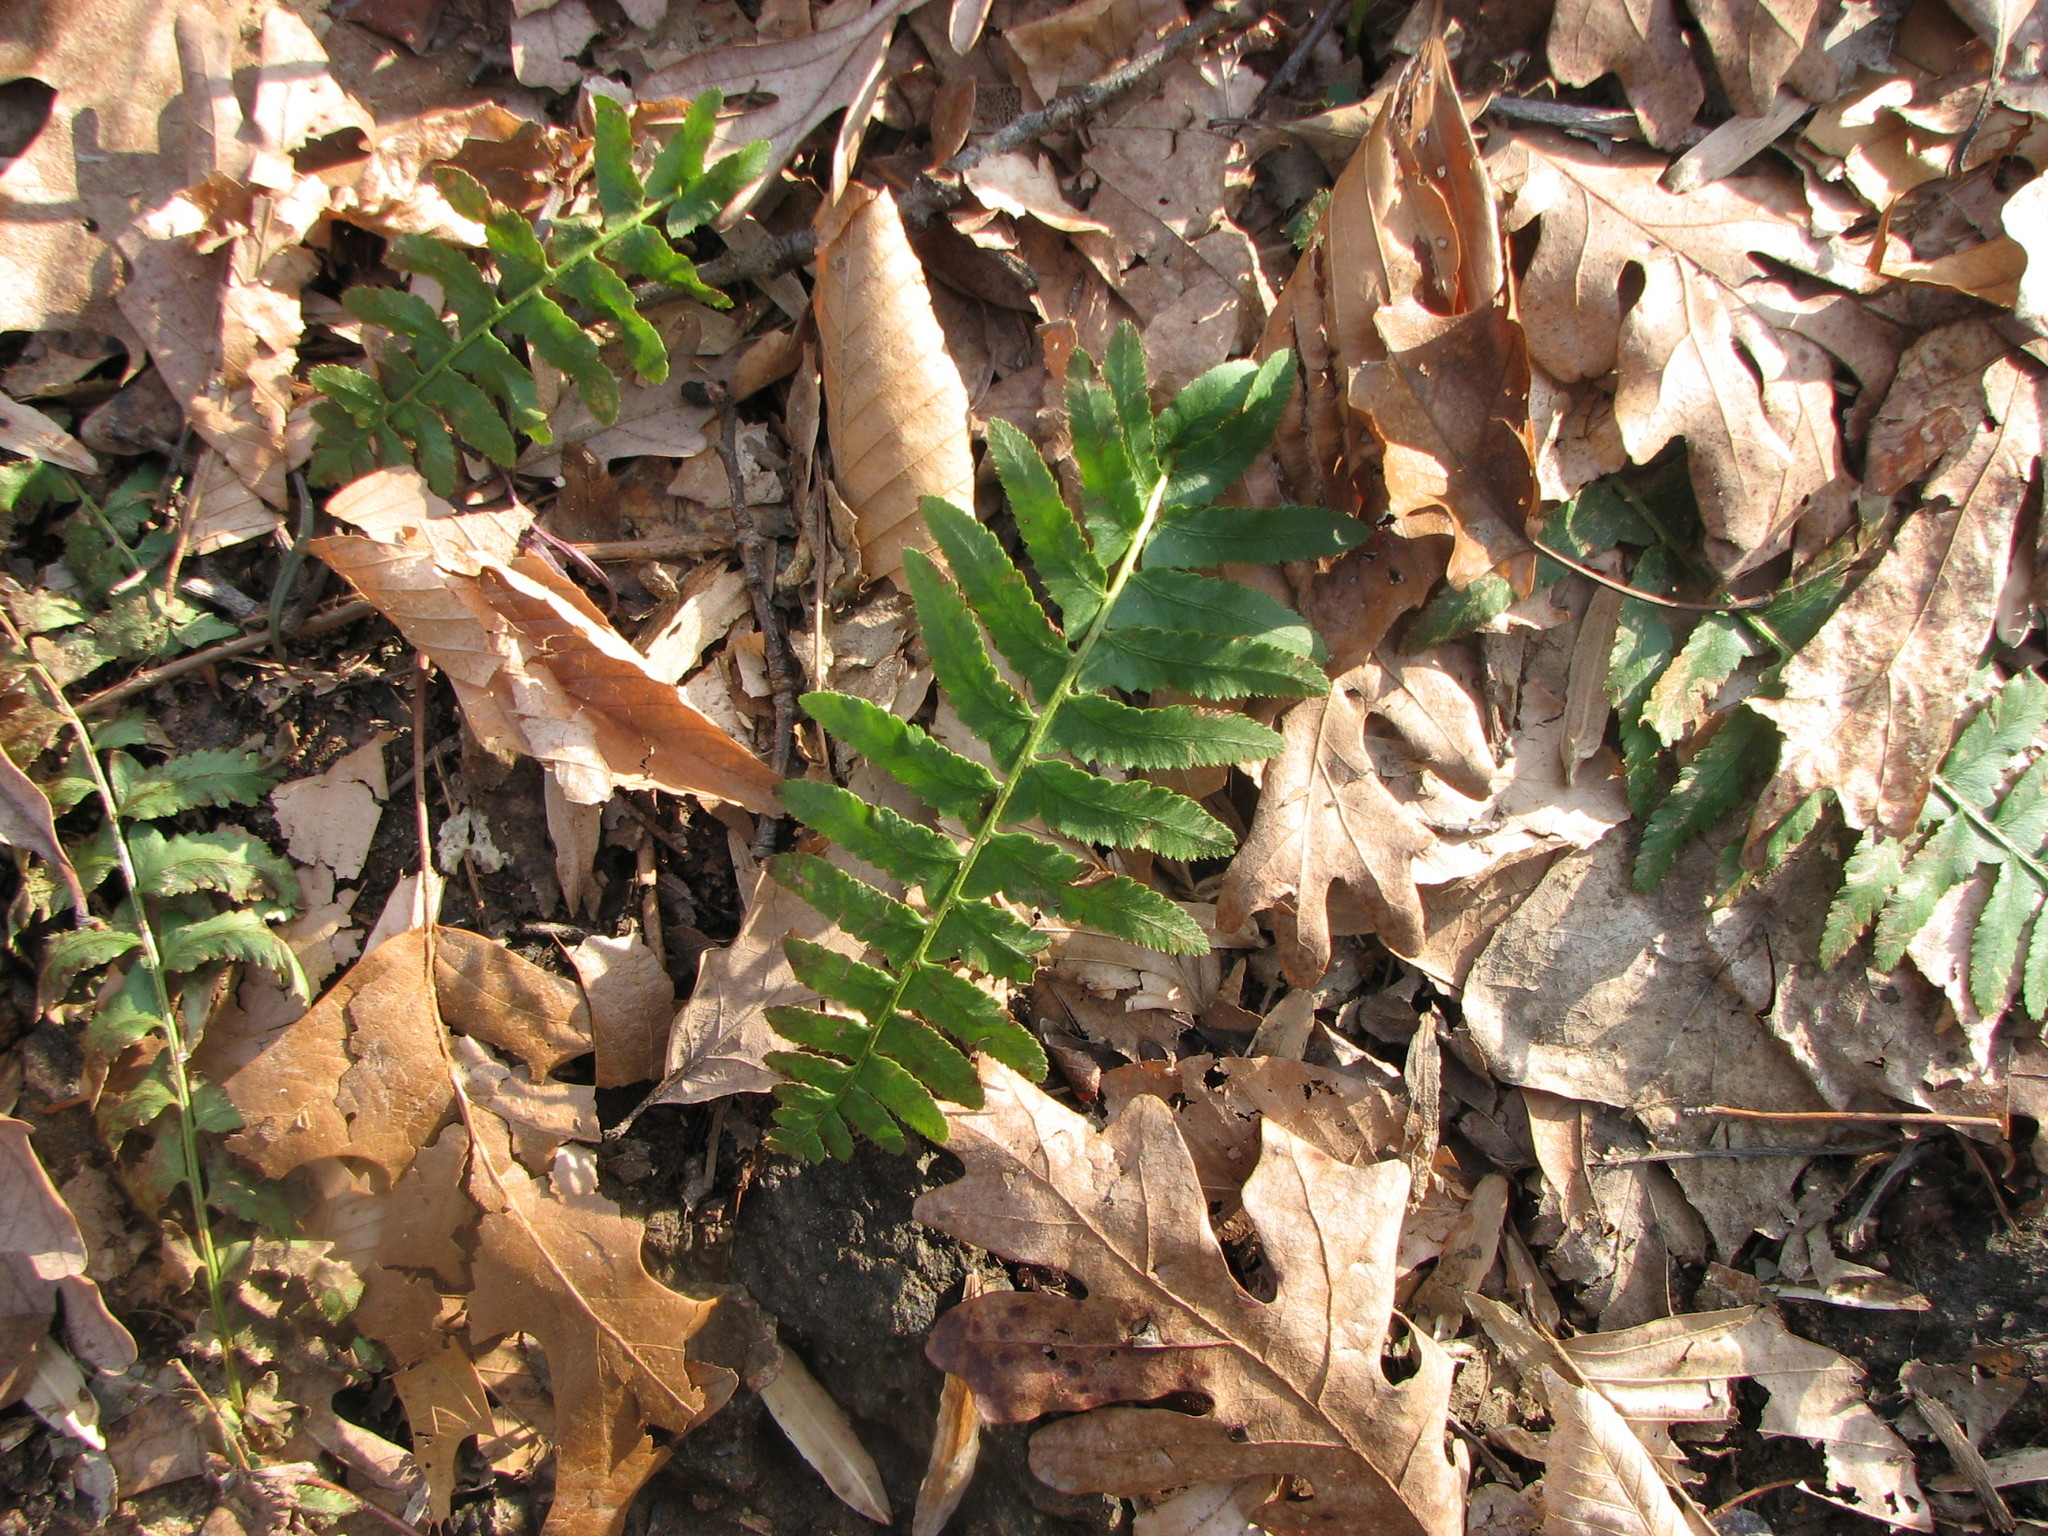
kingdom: Plantae
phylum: Tracheophyta
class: Polypodiopsida
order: Polypodiales
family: Dryopteridaceae
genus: Polystichum
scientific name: Polystichum acrostichoides
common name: Christmas fern
